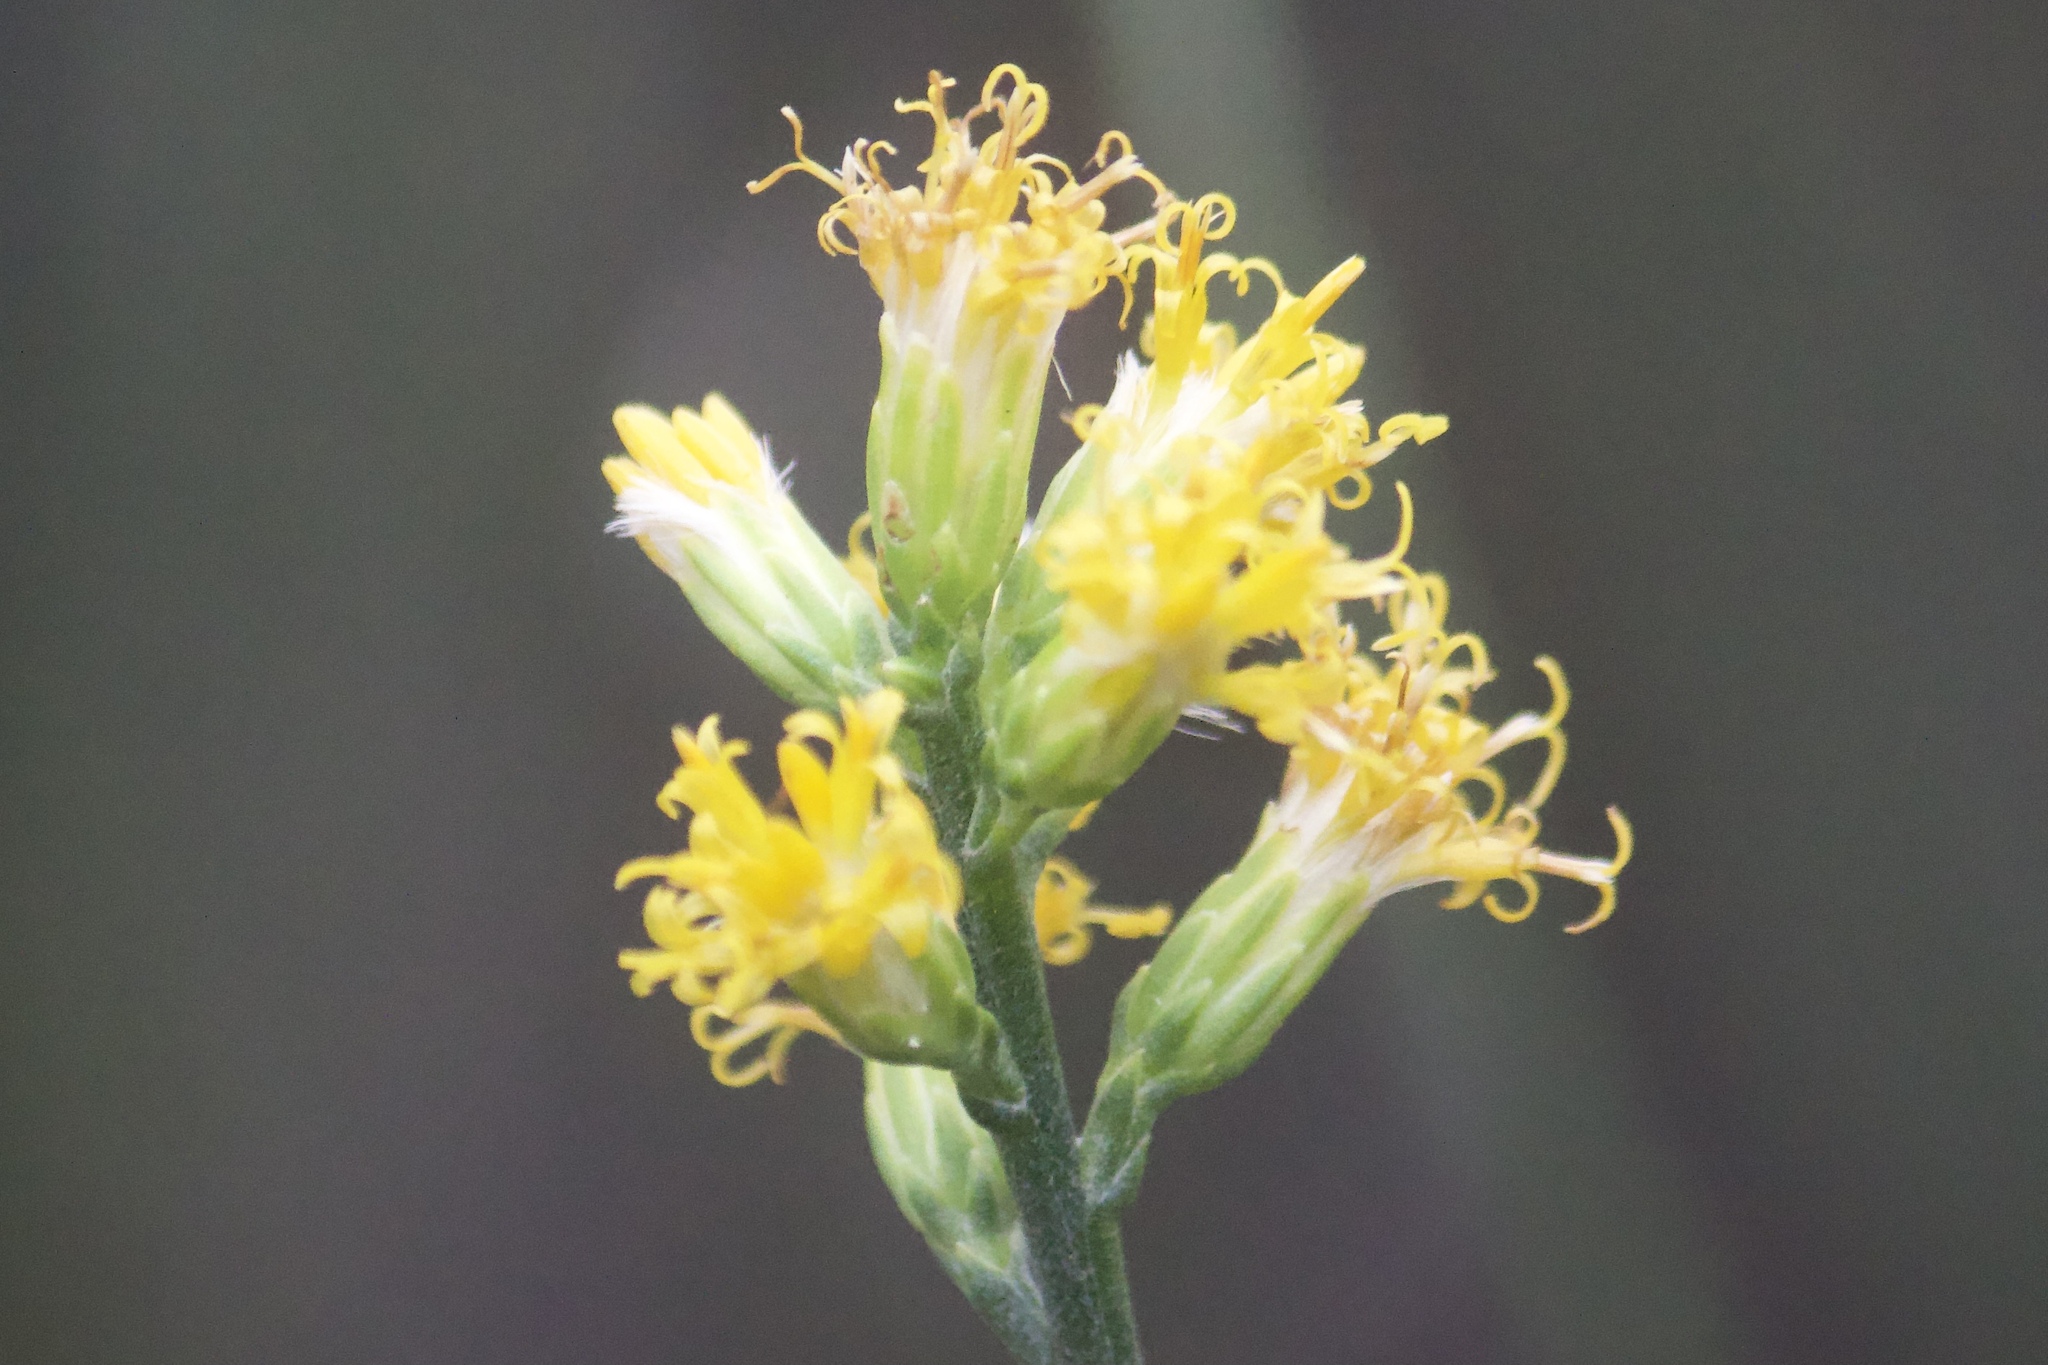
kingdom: Plantae
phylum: Tracheophyta
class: Magnoliopsida
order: Asterales
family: Asteraceae
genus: Lepidospartum
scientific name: Lepidospartum squamatum
